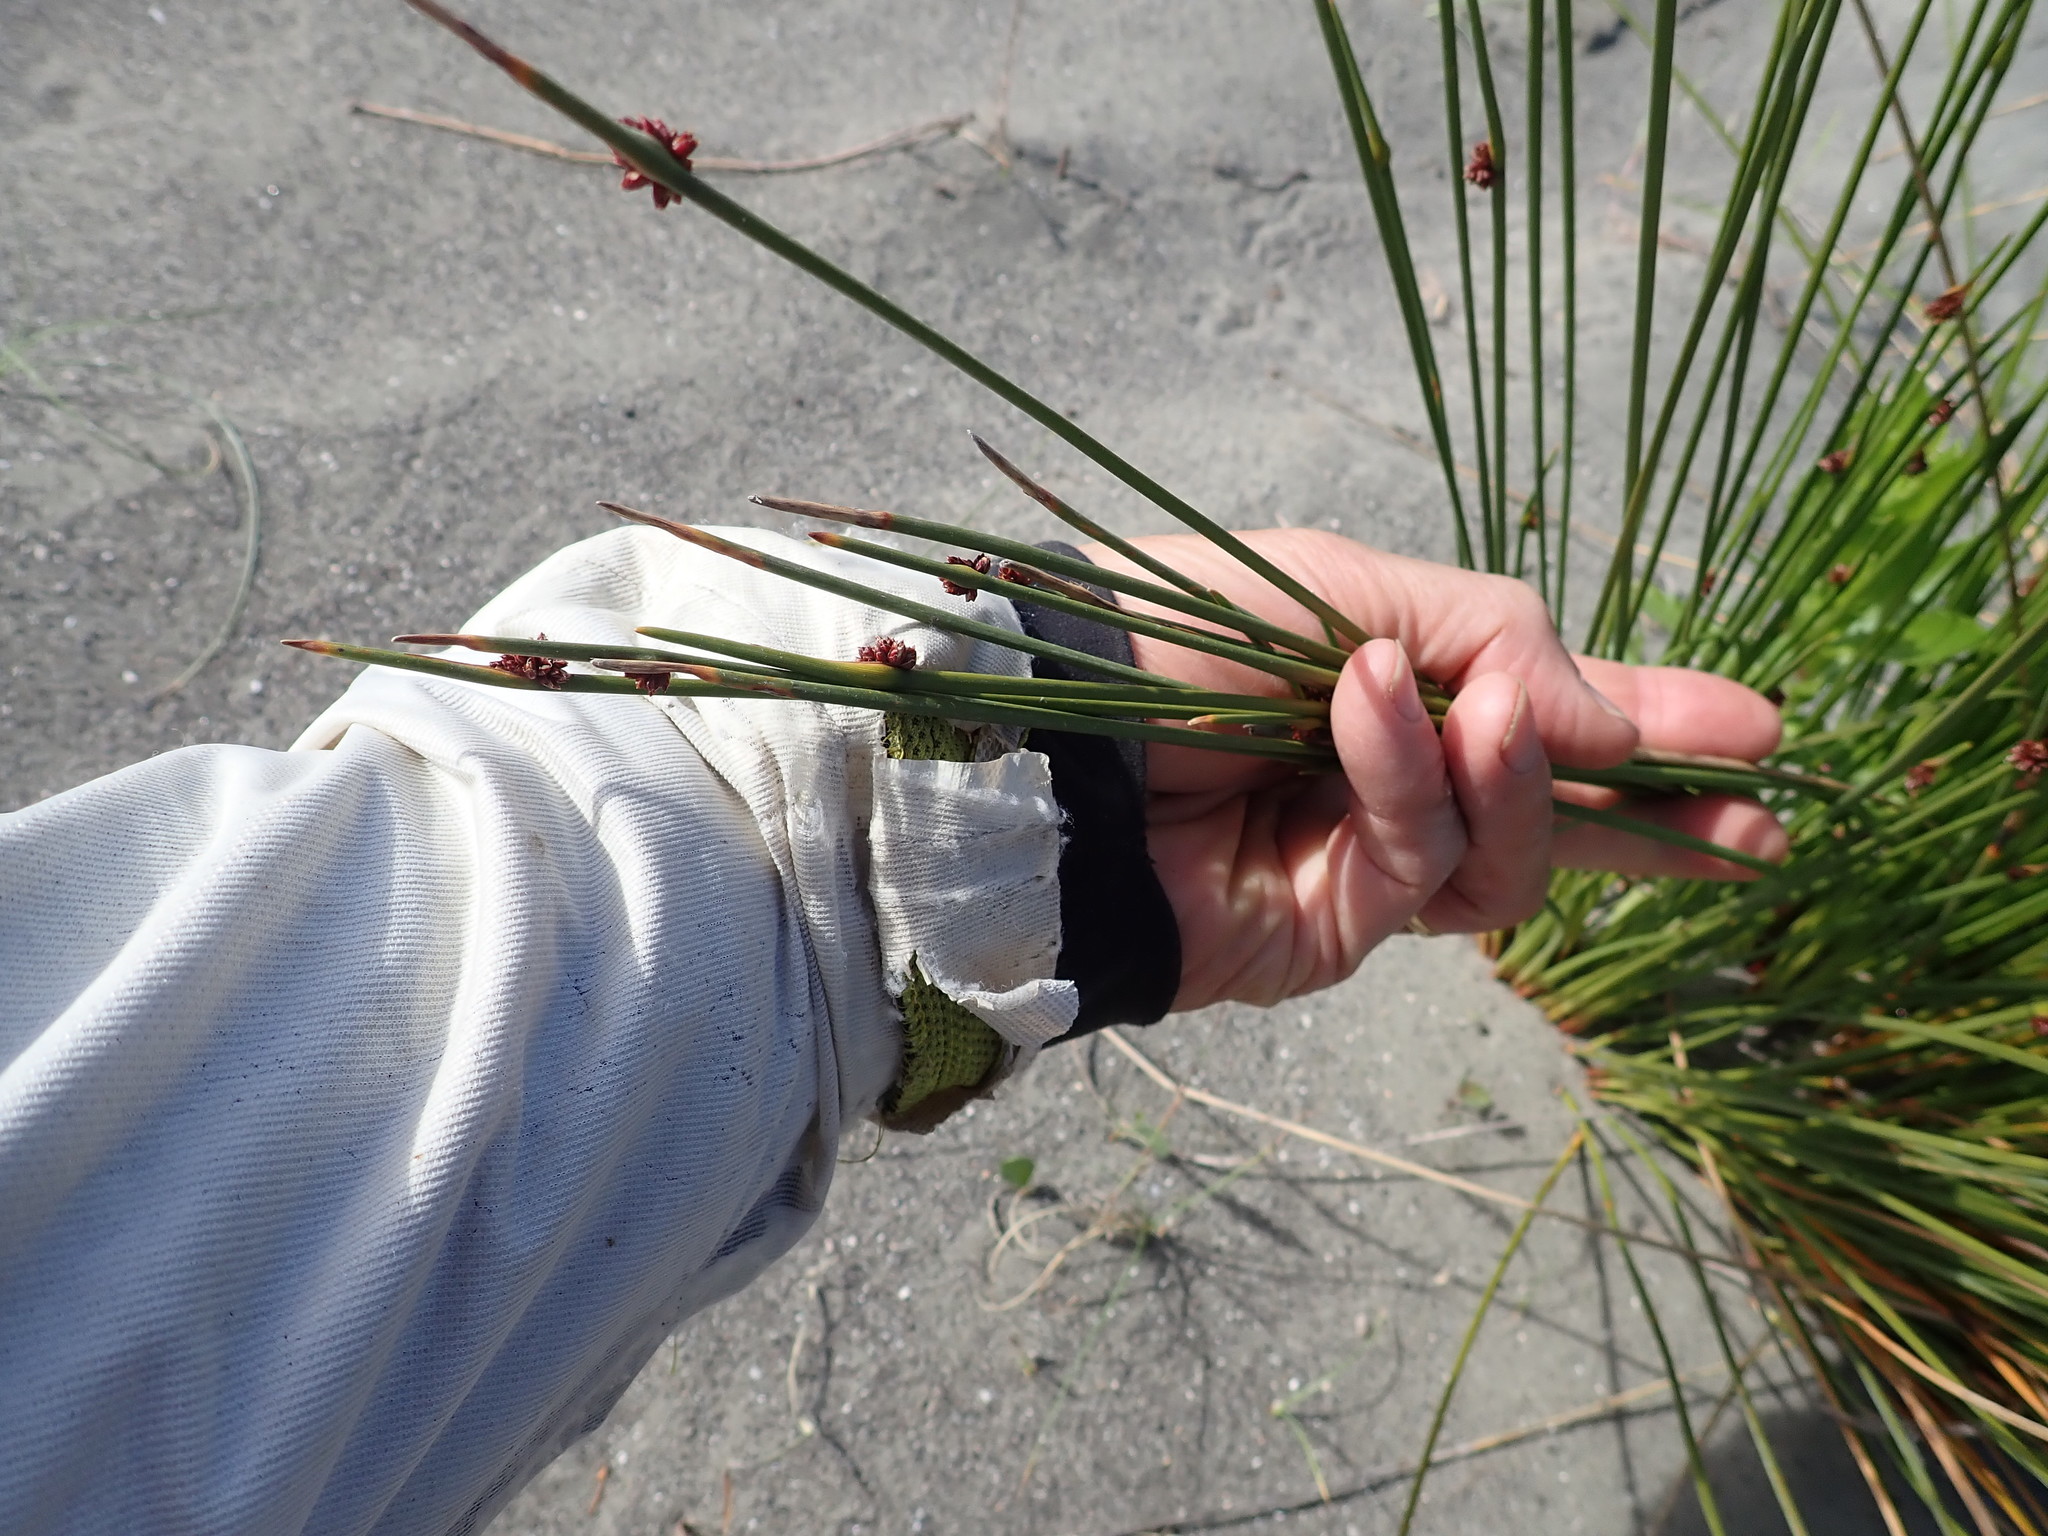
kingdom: Plantae
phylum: Tracheophyta
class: Liliopsida
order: Poales
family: Cyperaceae
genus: Ficinia
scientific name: Ficinia nodosa
